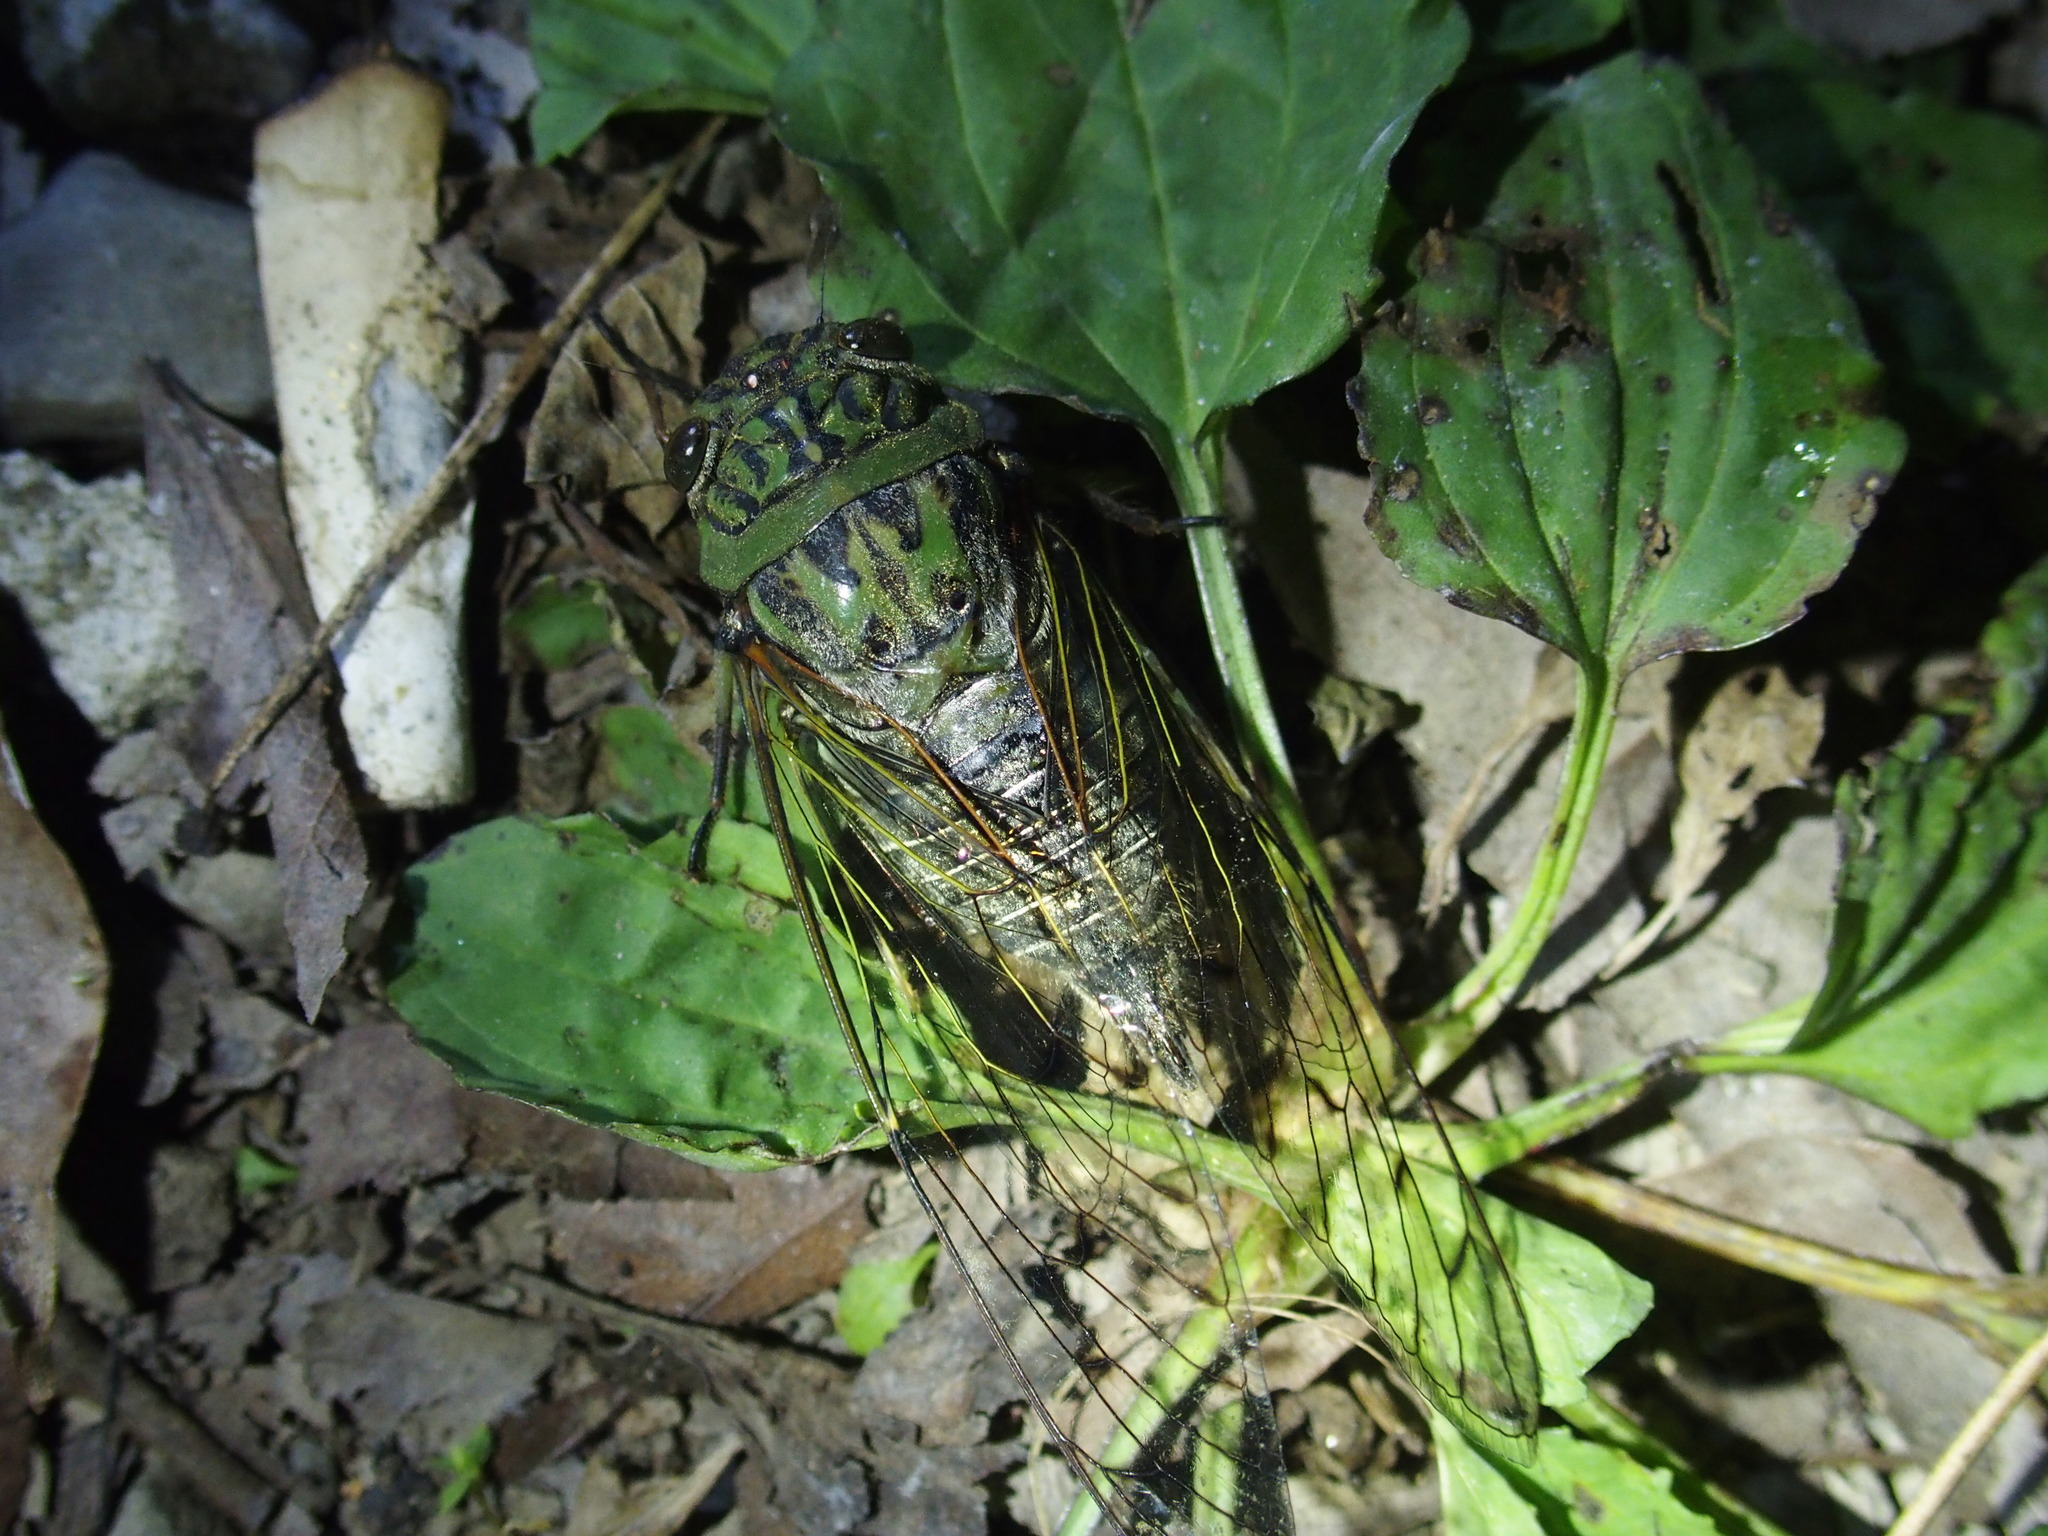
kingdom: Animalia
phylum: Arthropoda
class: Insecta
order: Hemiptera
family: Cicadidae
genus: Macrosemia
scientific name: Macrosemia kareisana
